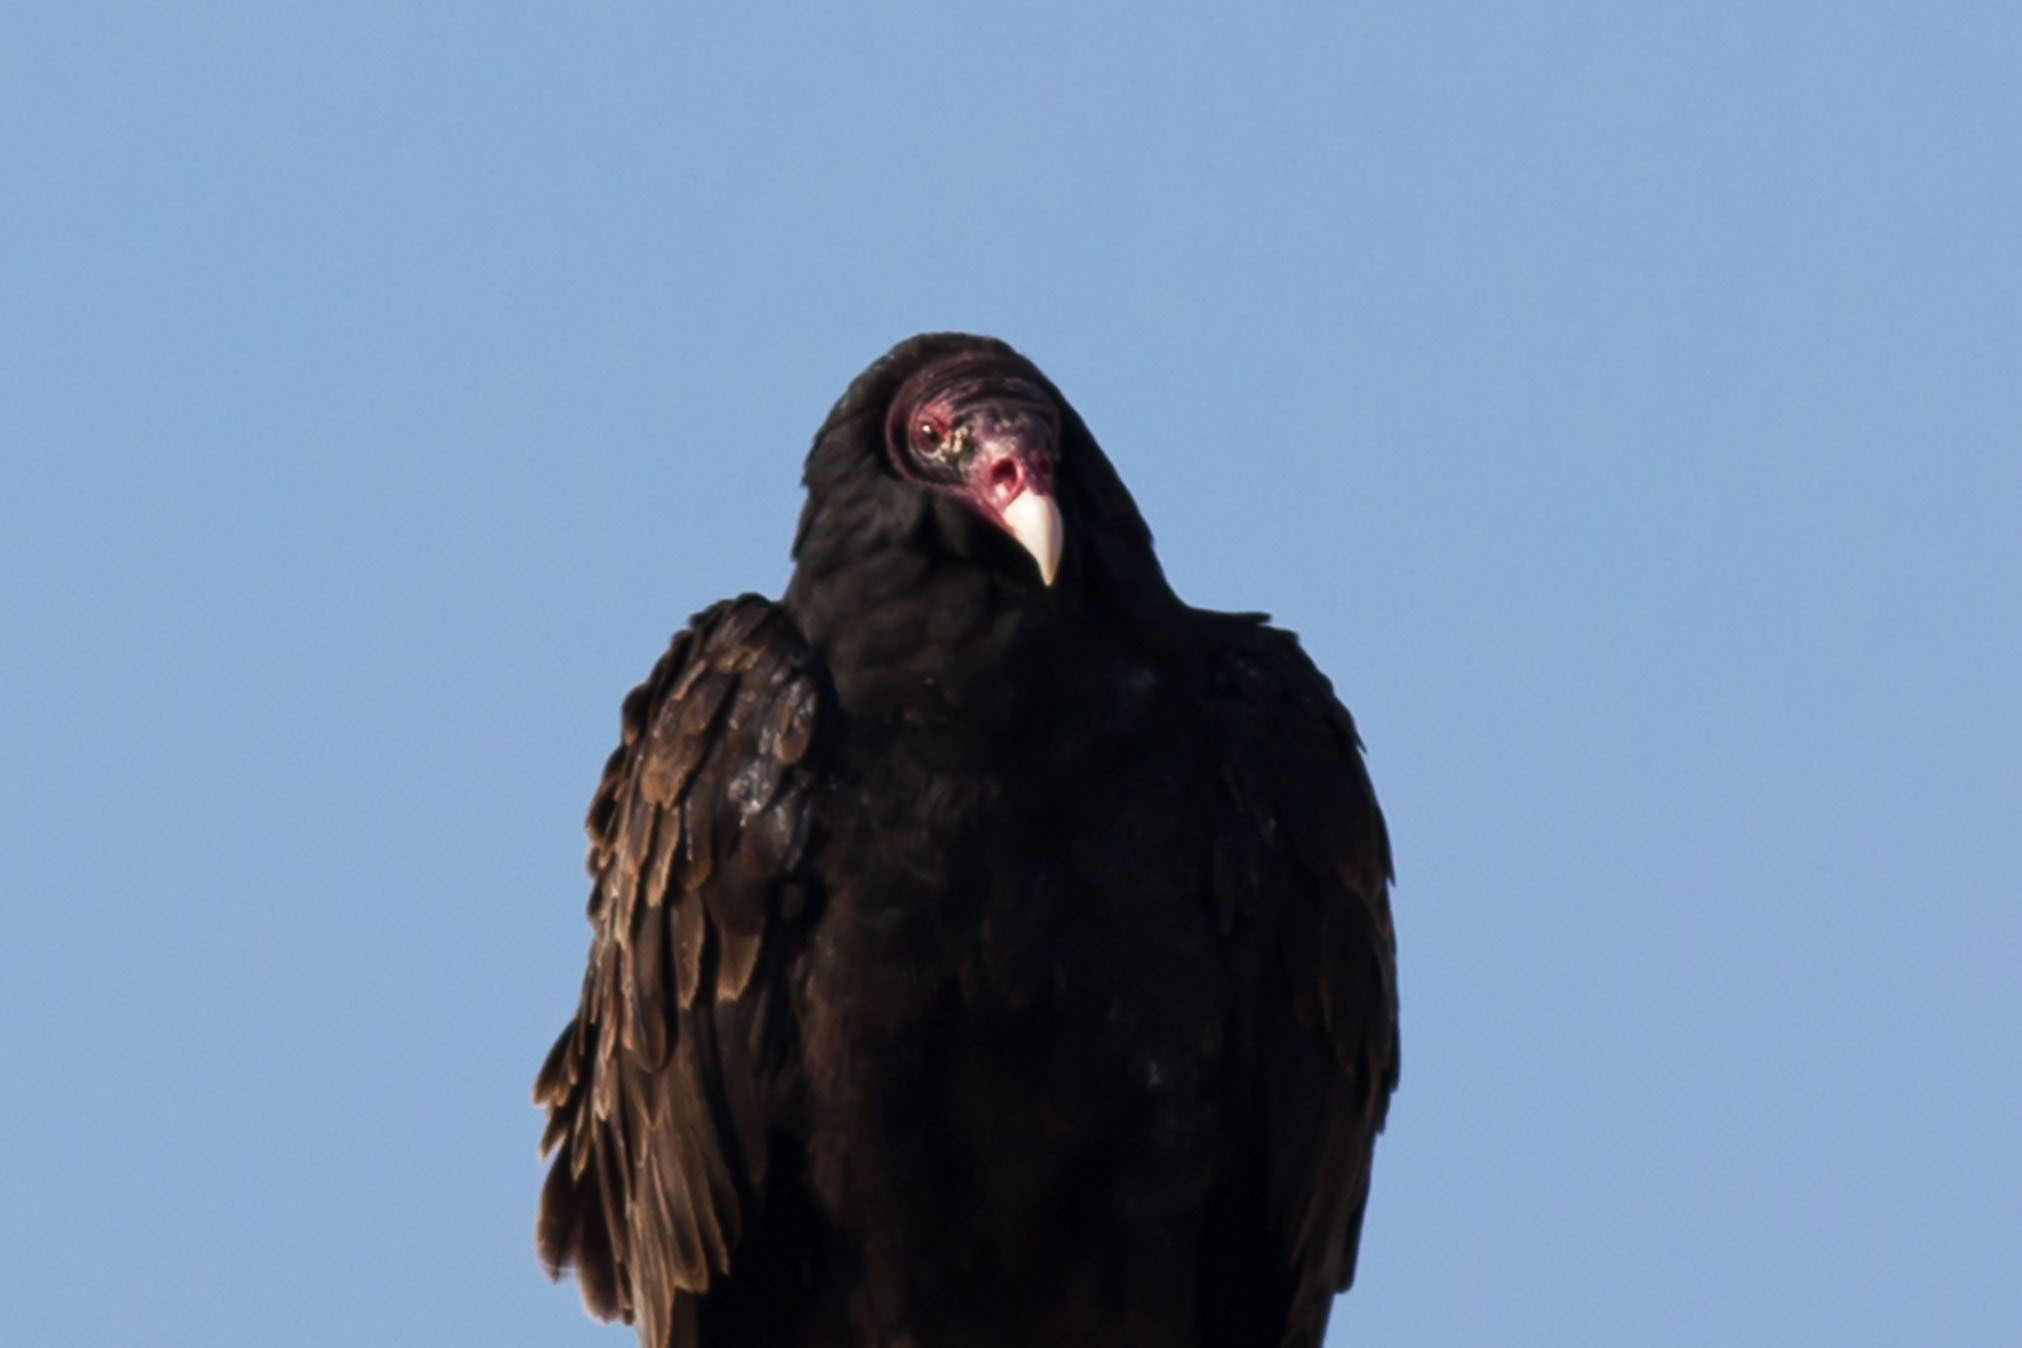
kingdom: Animalia
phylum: Chordata
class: Aves
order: Accipitriformes
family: Cathartidae
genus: Cathartes
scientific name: Cathartes aura
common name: Turkey vulture
